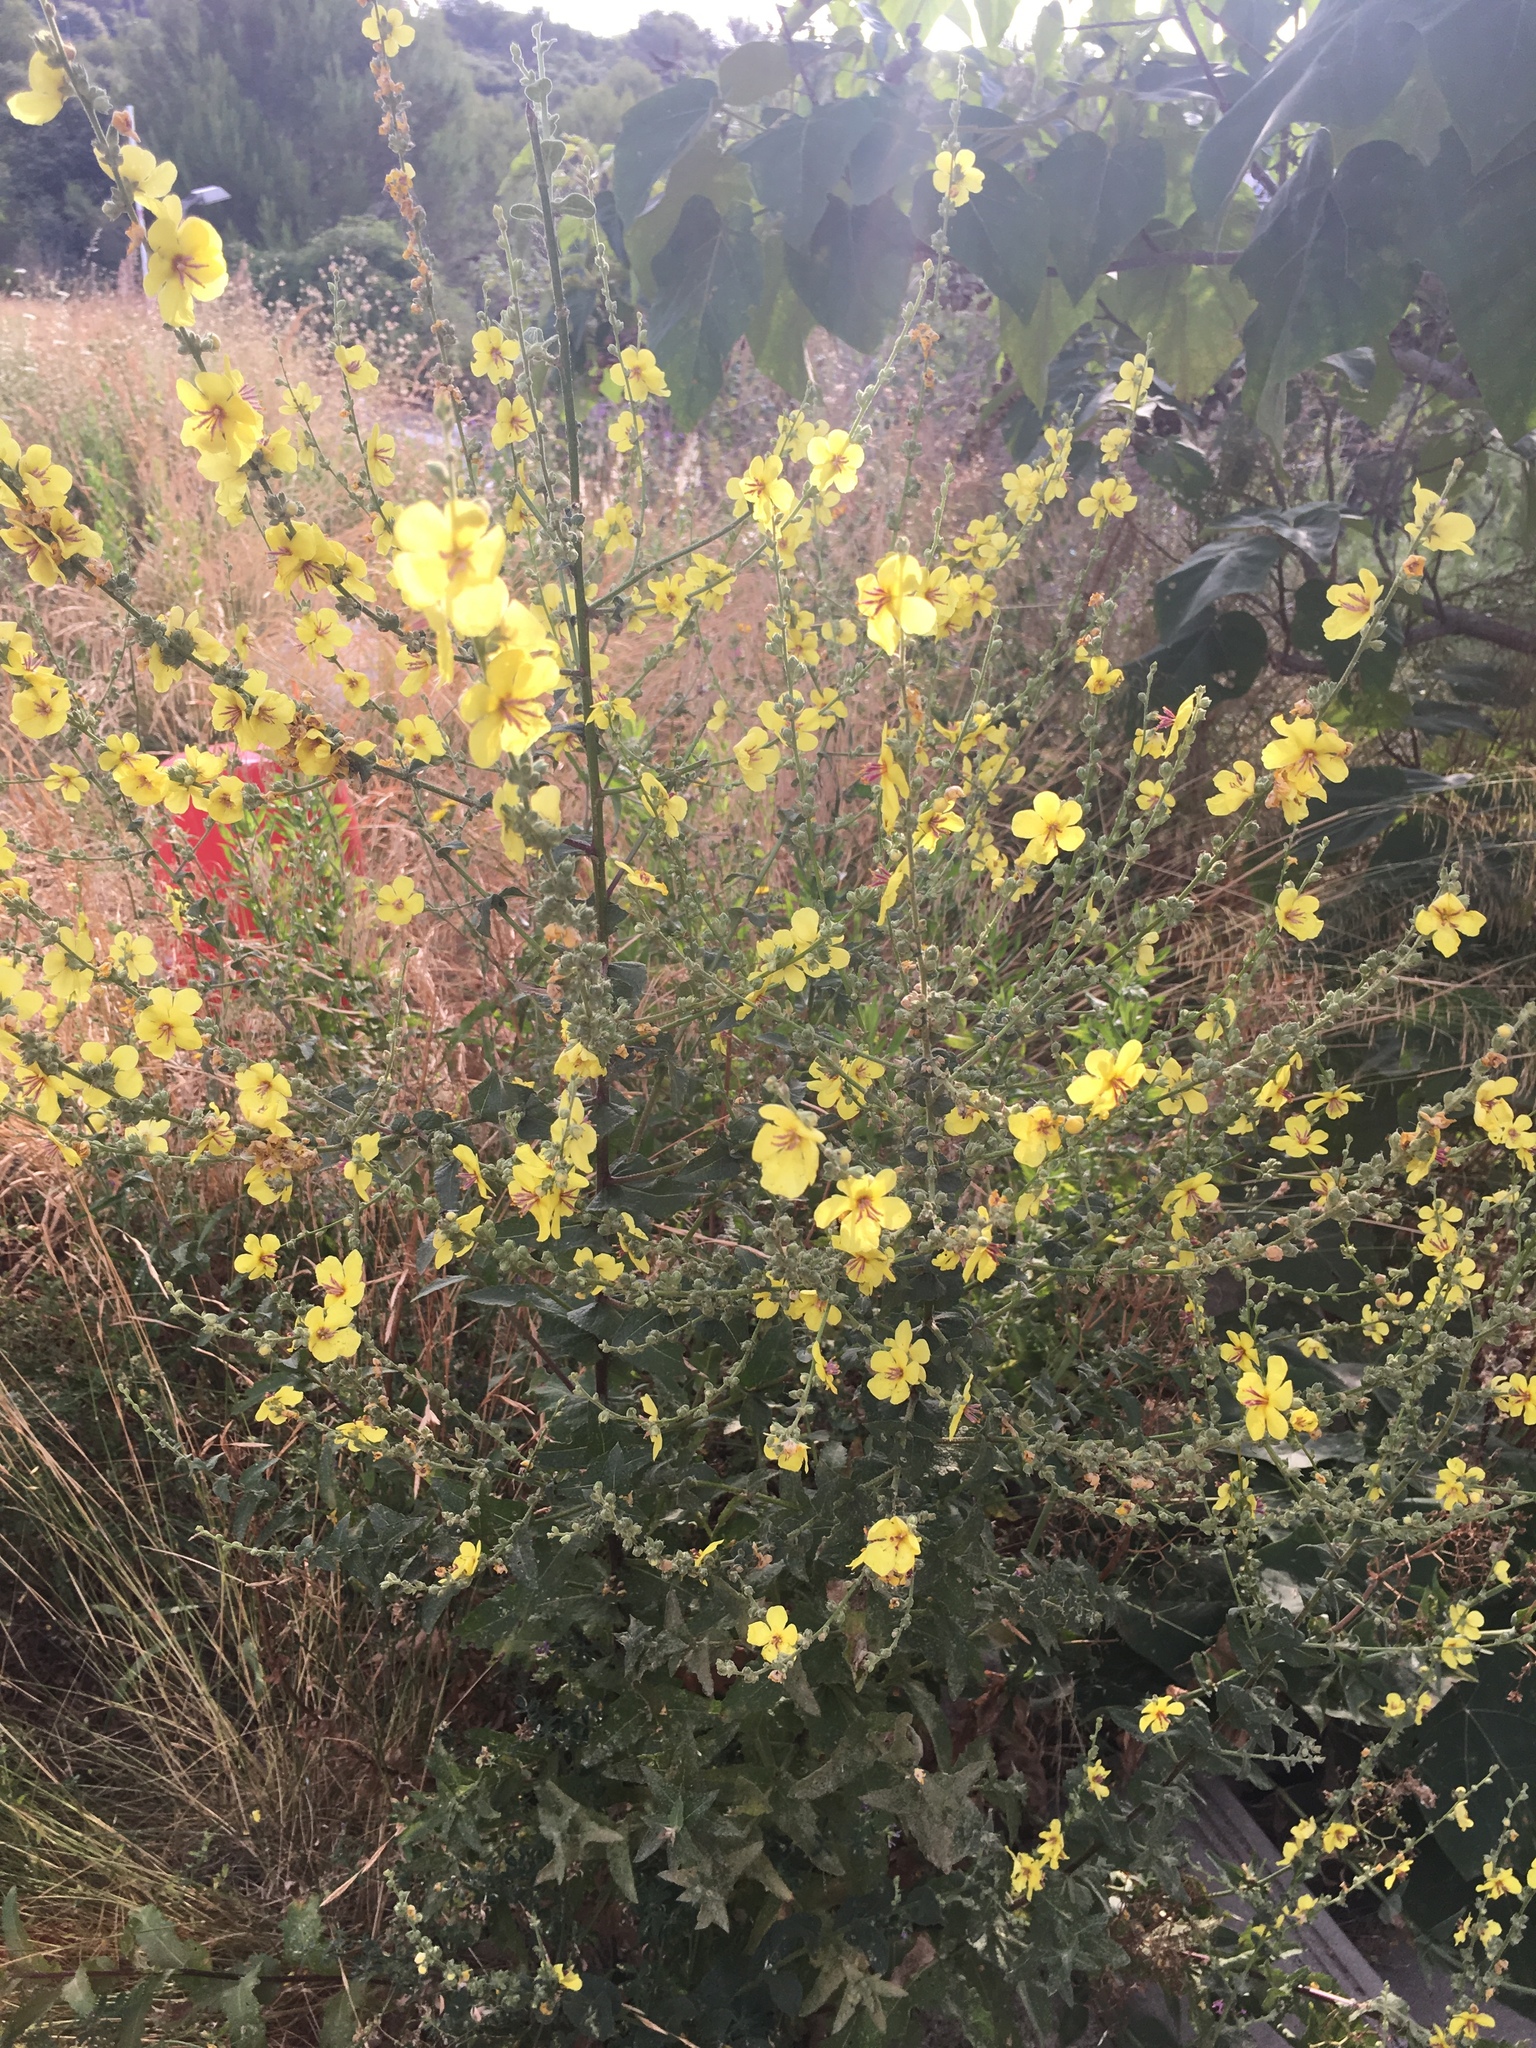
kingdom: Plantae
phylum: Tracheophyta
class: Magnoliopsida
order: Lamiales
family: Scrophulariaceae
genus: Verbascum
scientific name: Verbascum sinuatum
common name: Wavyleaf mullein
